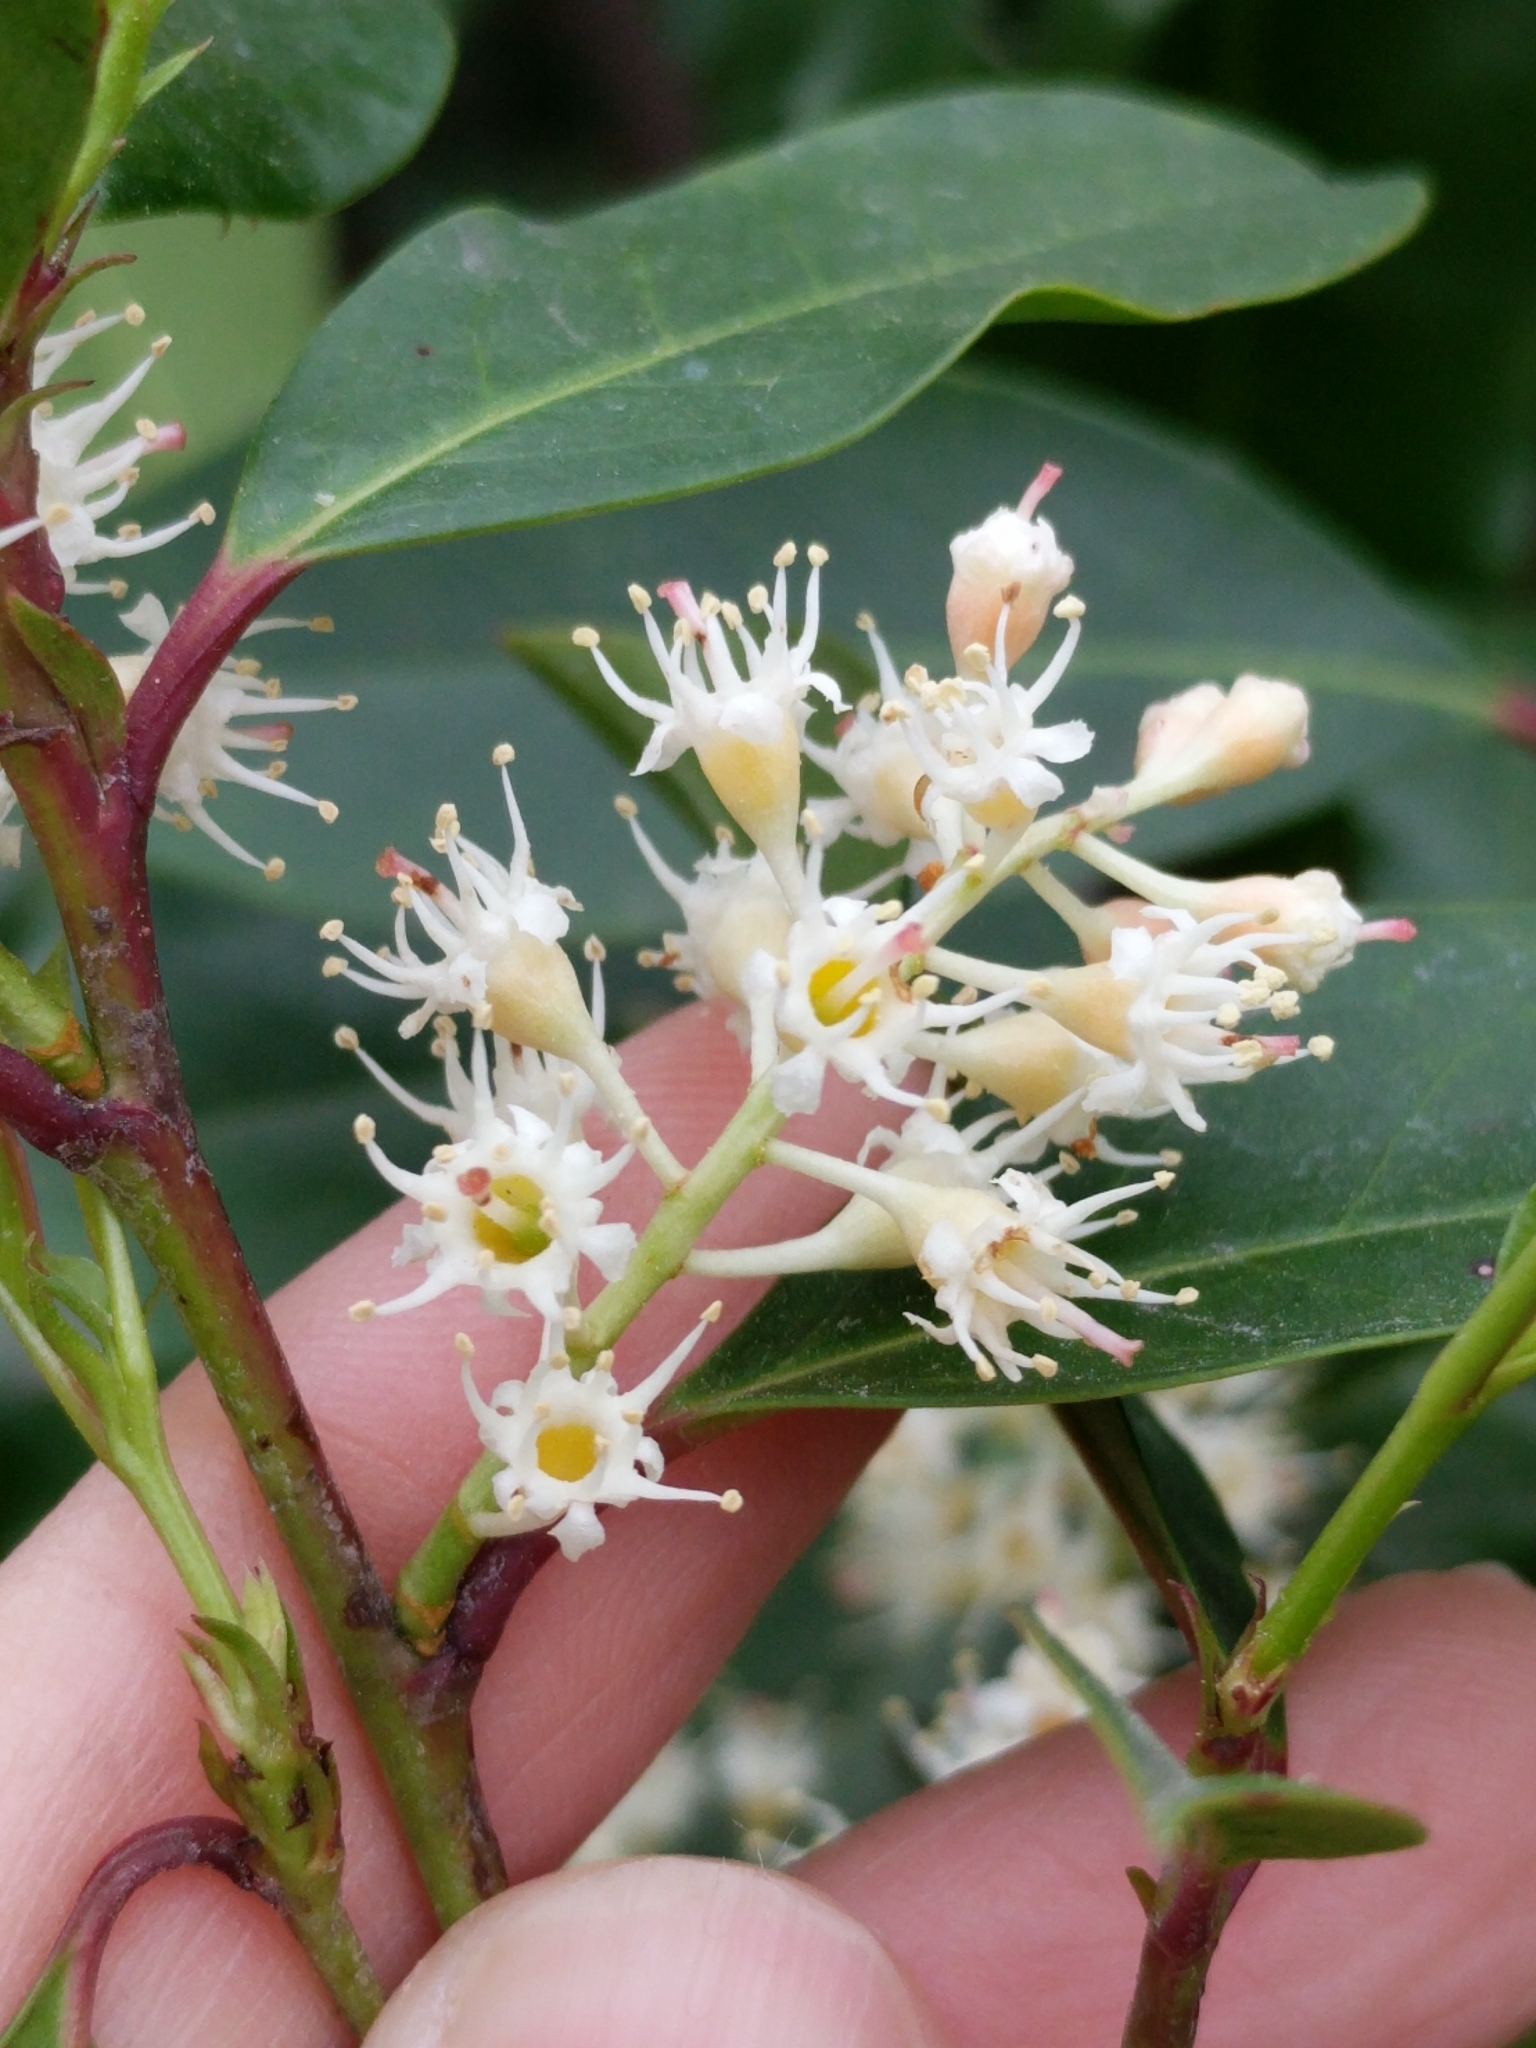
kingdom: Plantae
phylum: Tracheophyta
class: Magnoliopsida
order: Rosales
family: Rosaceae
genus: Prunus
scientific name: Prunus caroliniana
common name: Carolina laurel cherry
